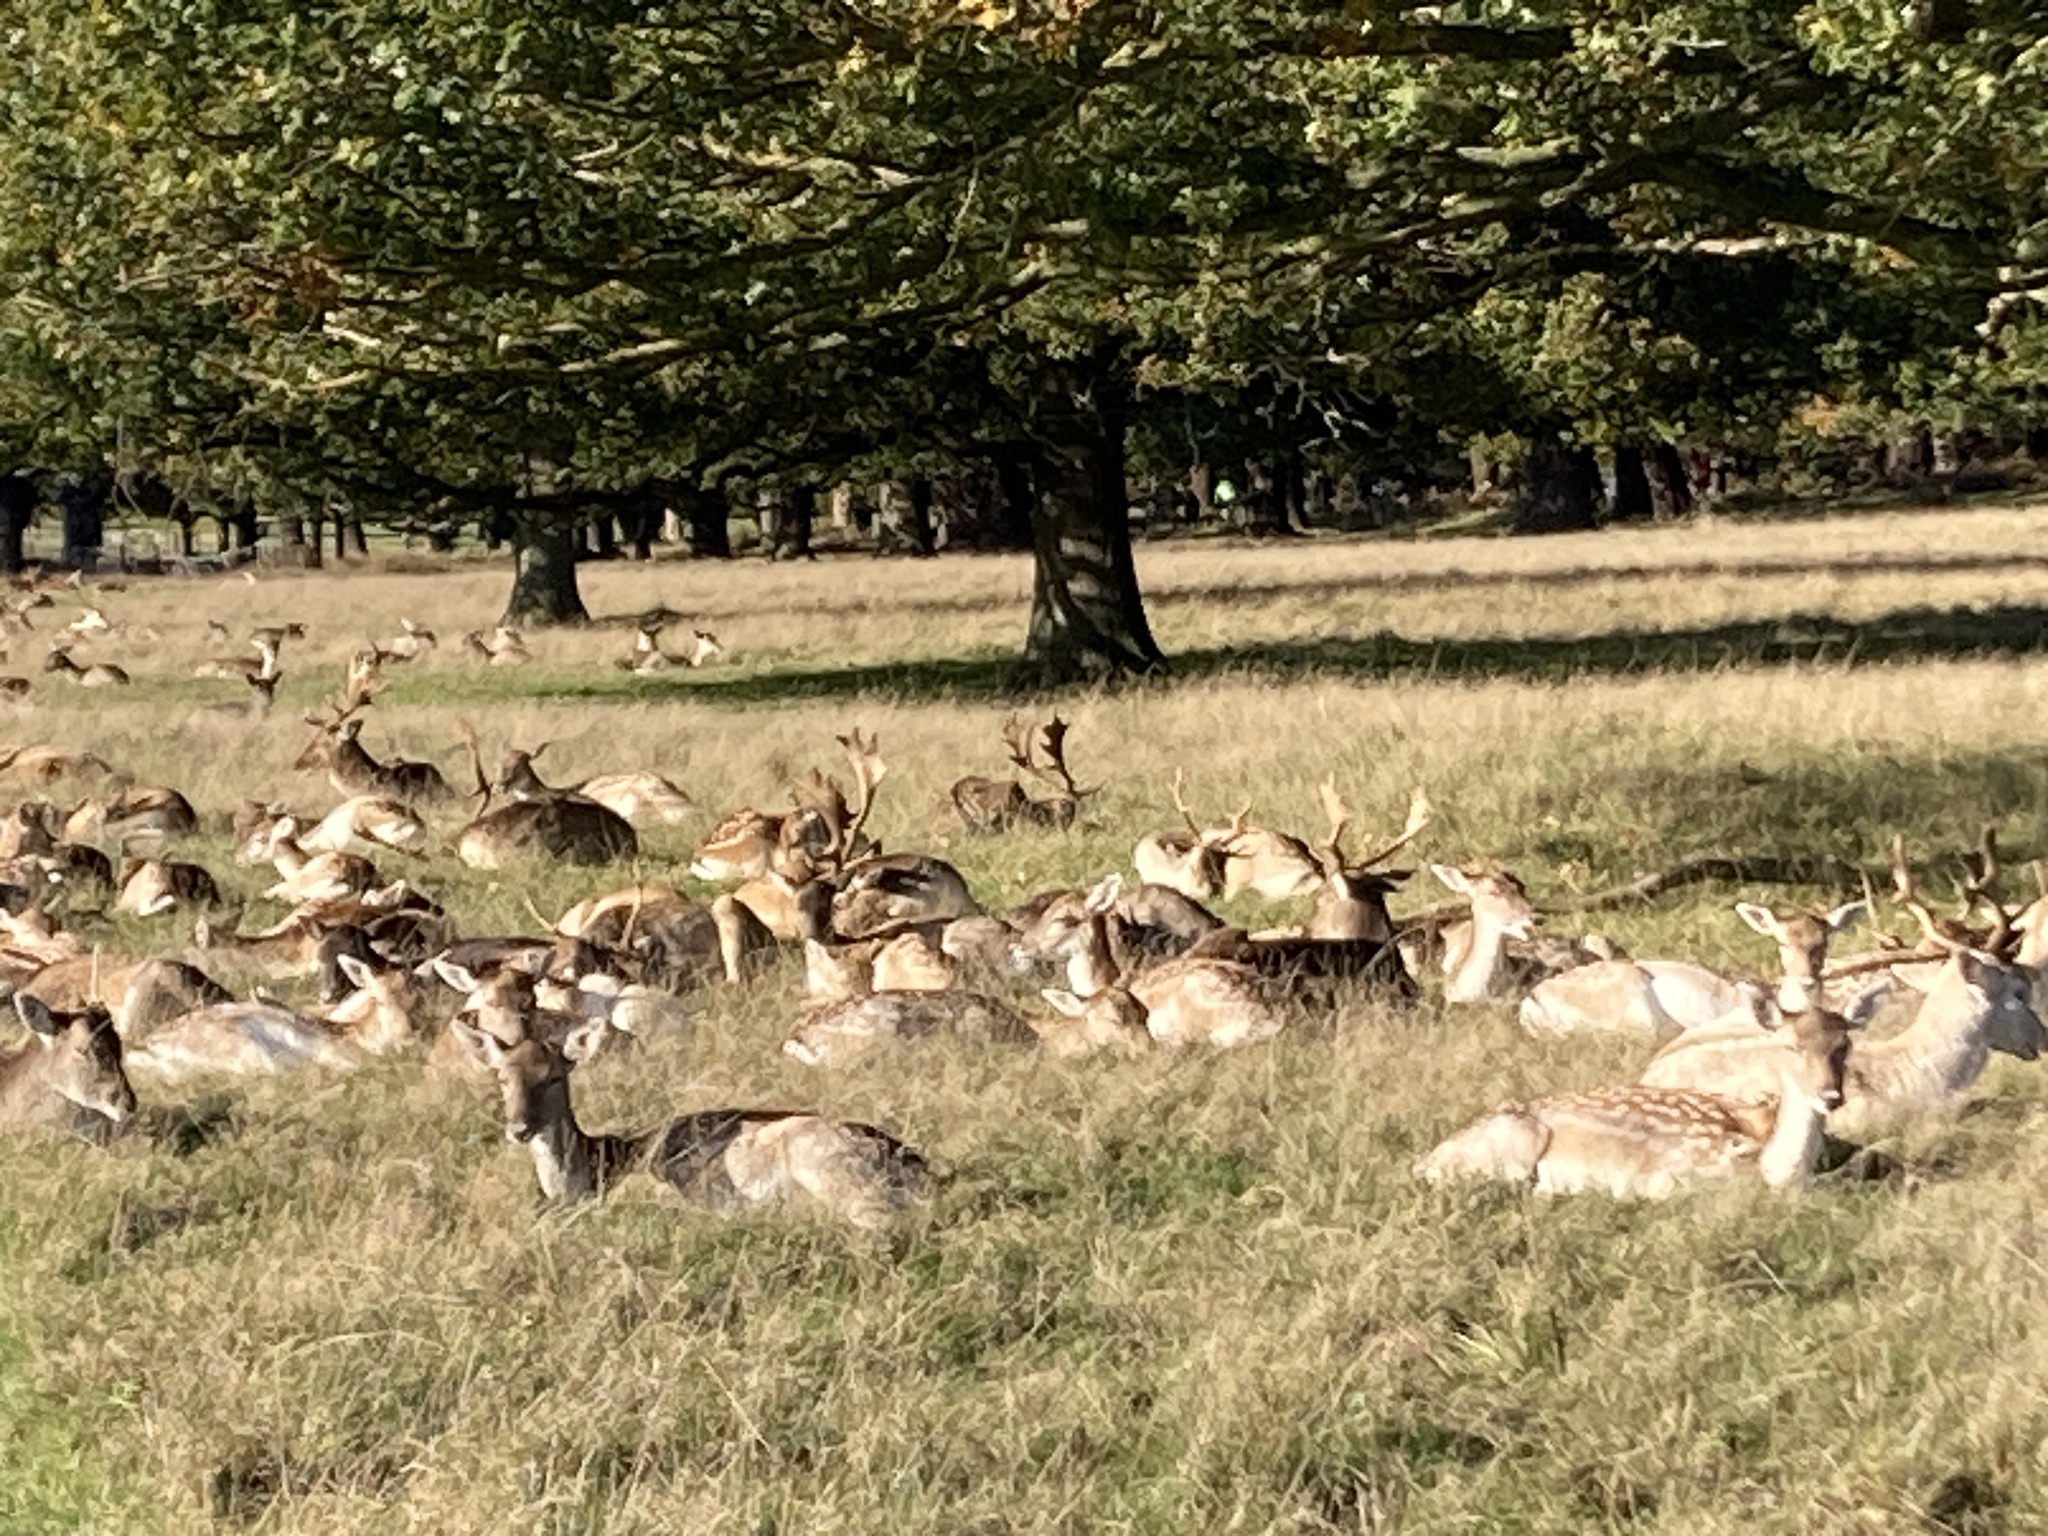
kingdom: Animalia
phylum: Chordata
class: Mammalia
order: Artiodactyla
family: Cervidae
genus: Dama
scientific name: Dama dama
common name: Fallow deer
